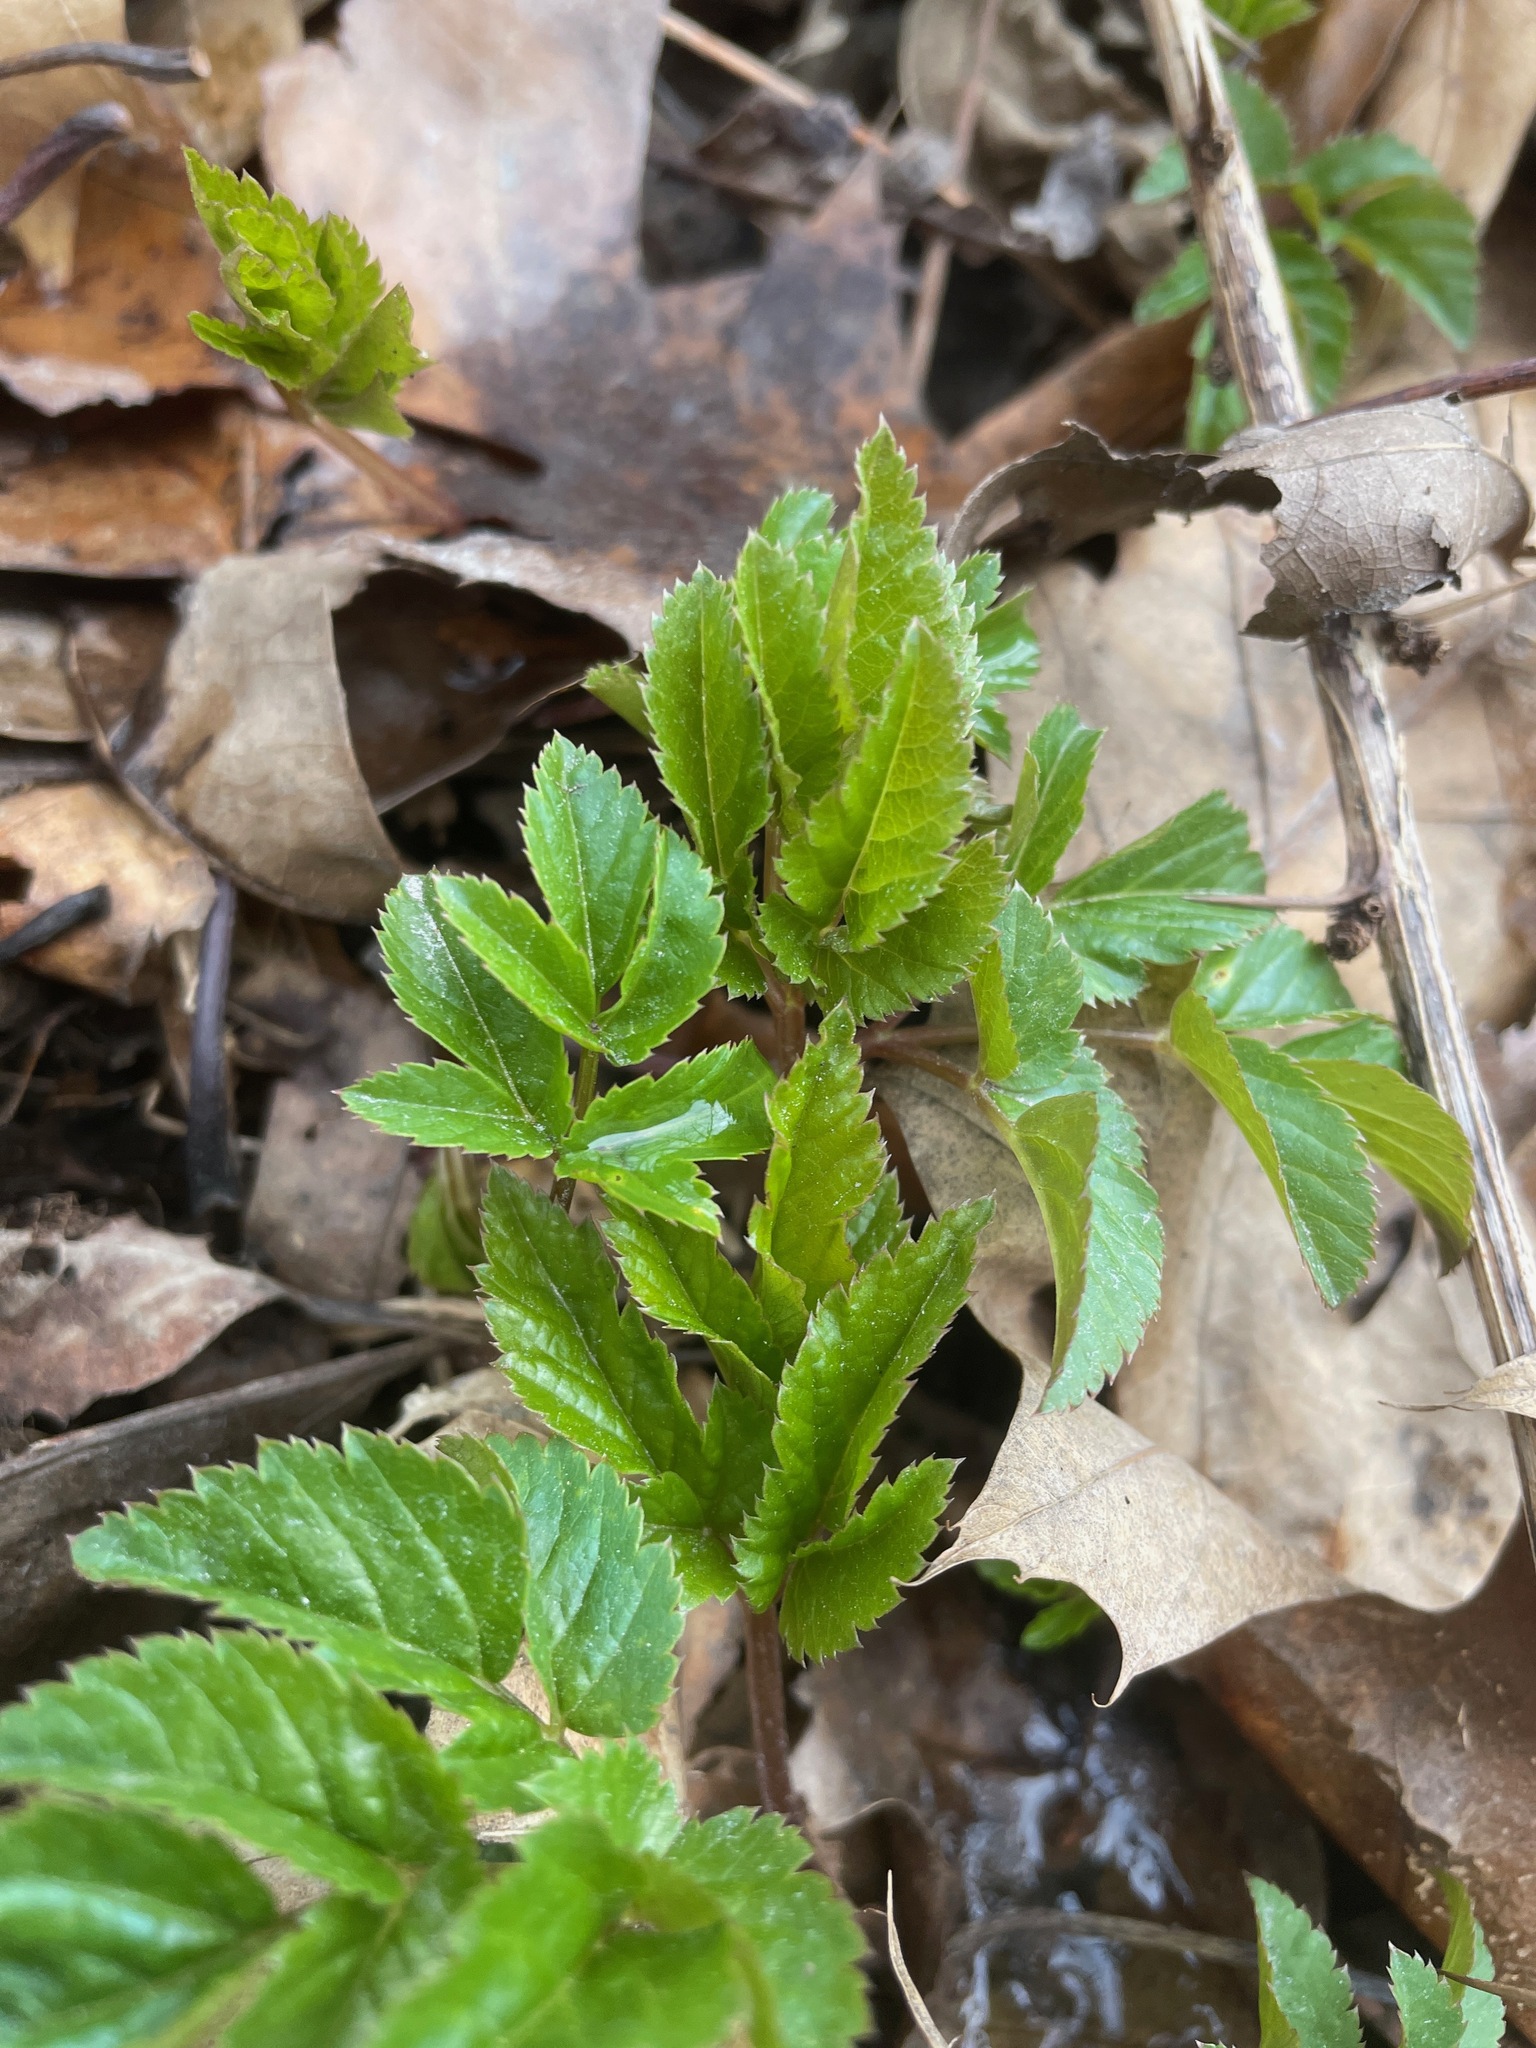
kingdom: Plantae
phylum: Tracheophyta
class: Magnoliopsida
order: Apiales
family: Apiaceae
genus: Aegopodium
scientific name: Aegopodium podagraria
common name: Ground-elder
